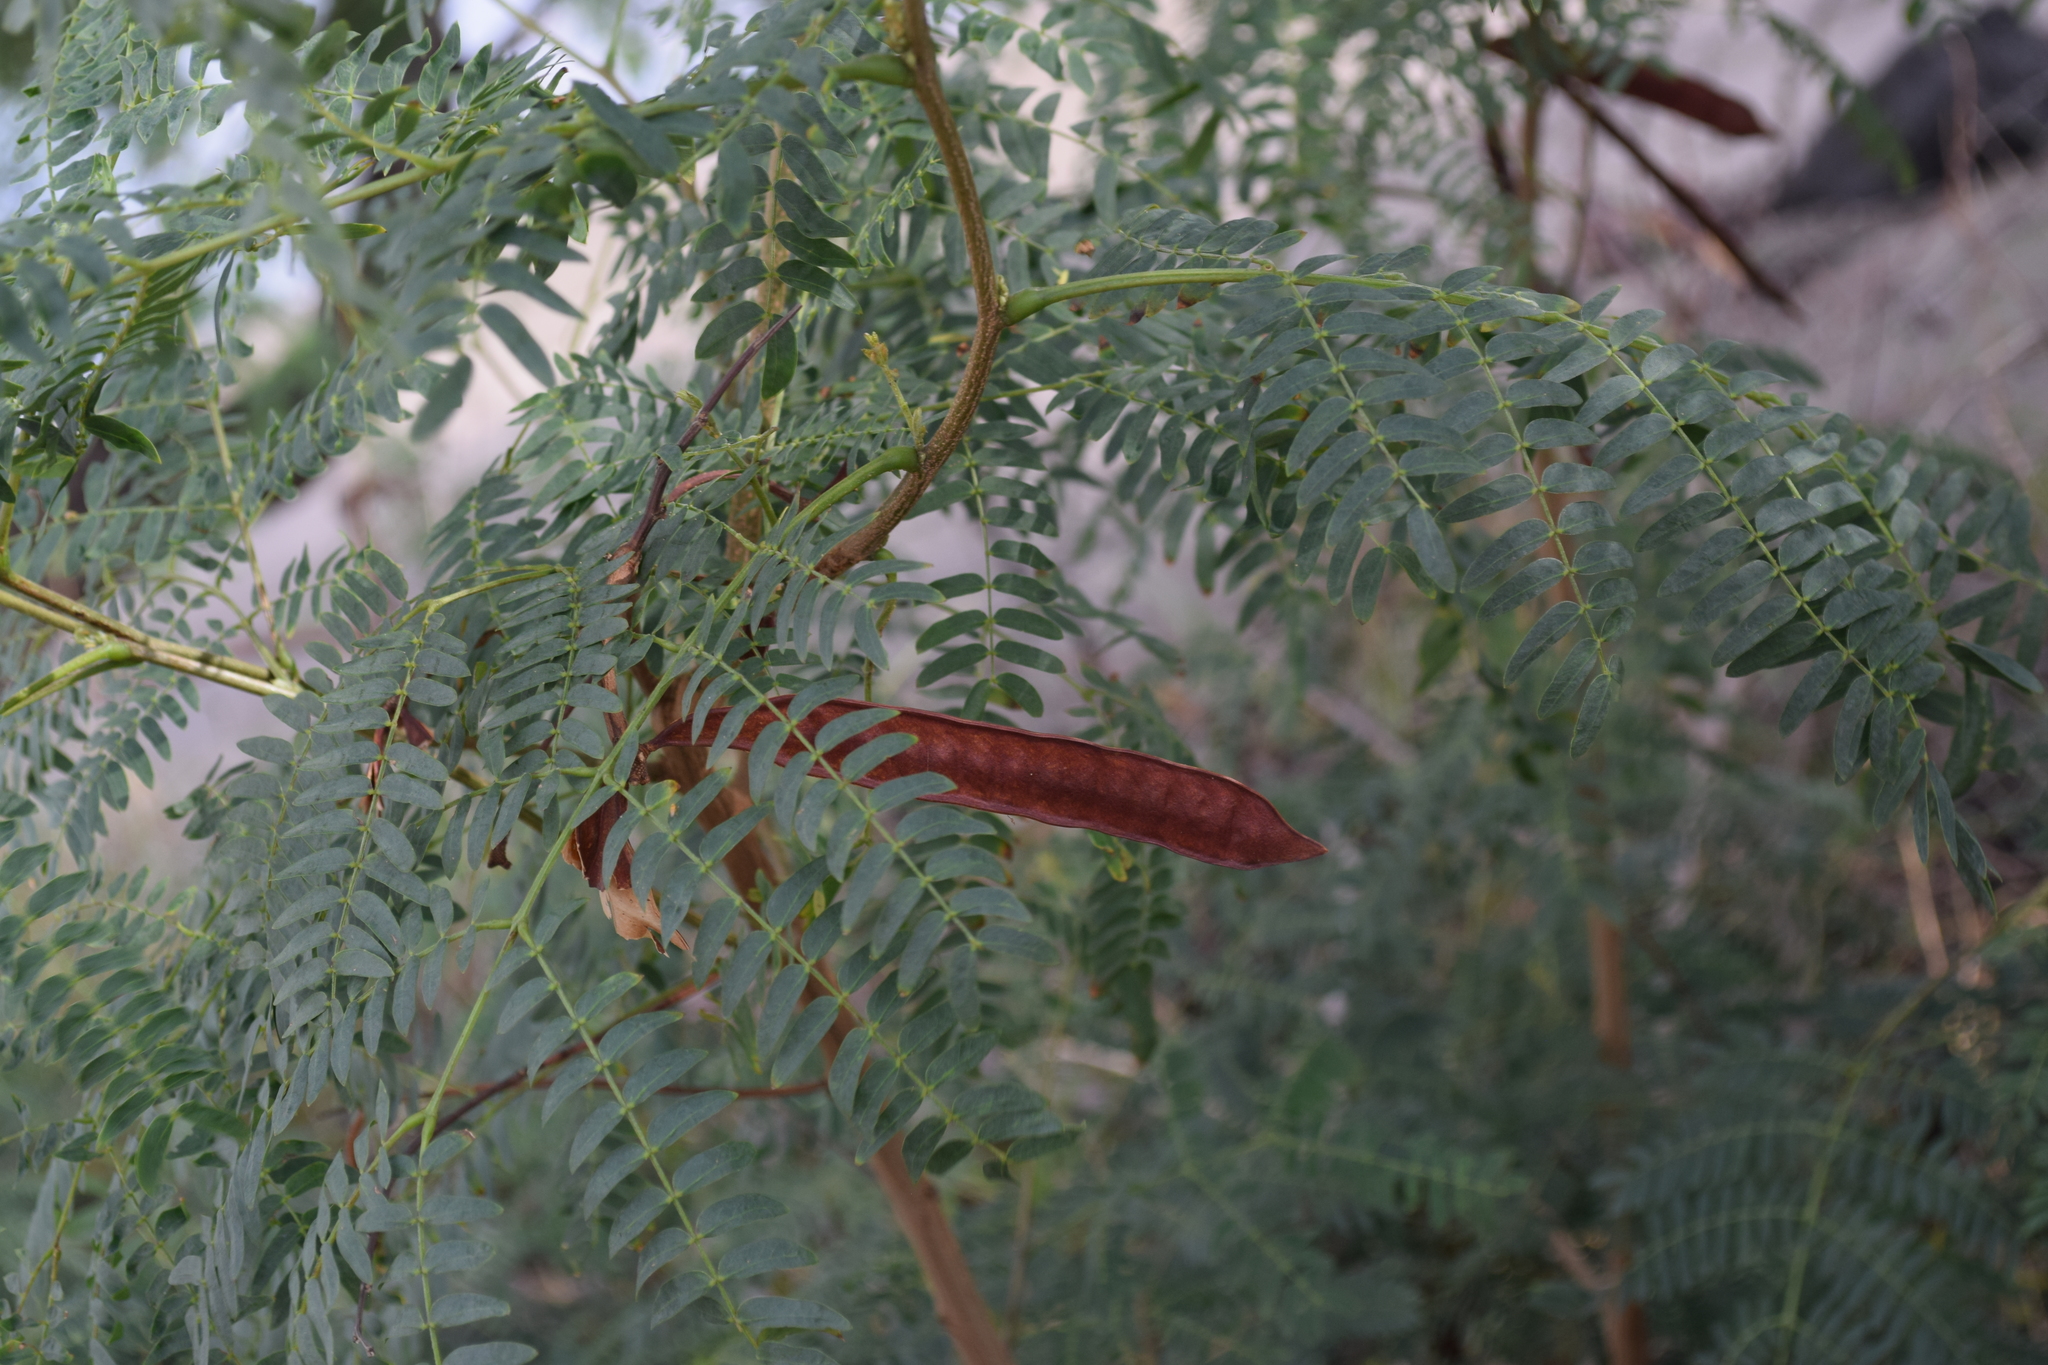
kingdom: Plantae
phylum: Tracheophyta
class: Magnoliopsida
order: Fabales
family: Fabaceae
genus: Leucaena
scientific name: Leucaena leucocephala
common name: White leadtree
